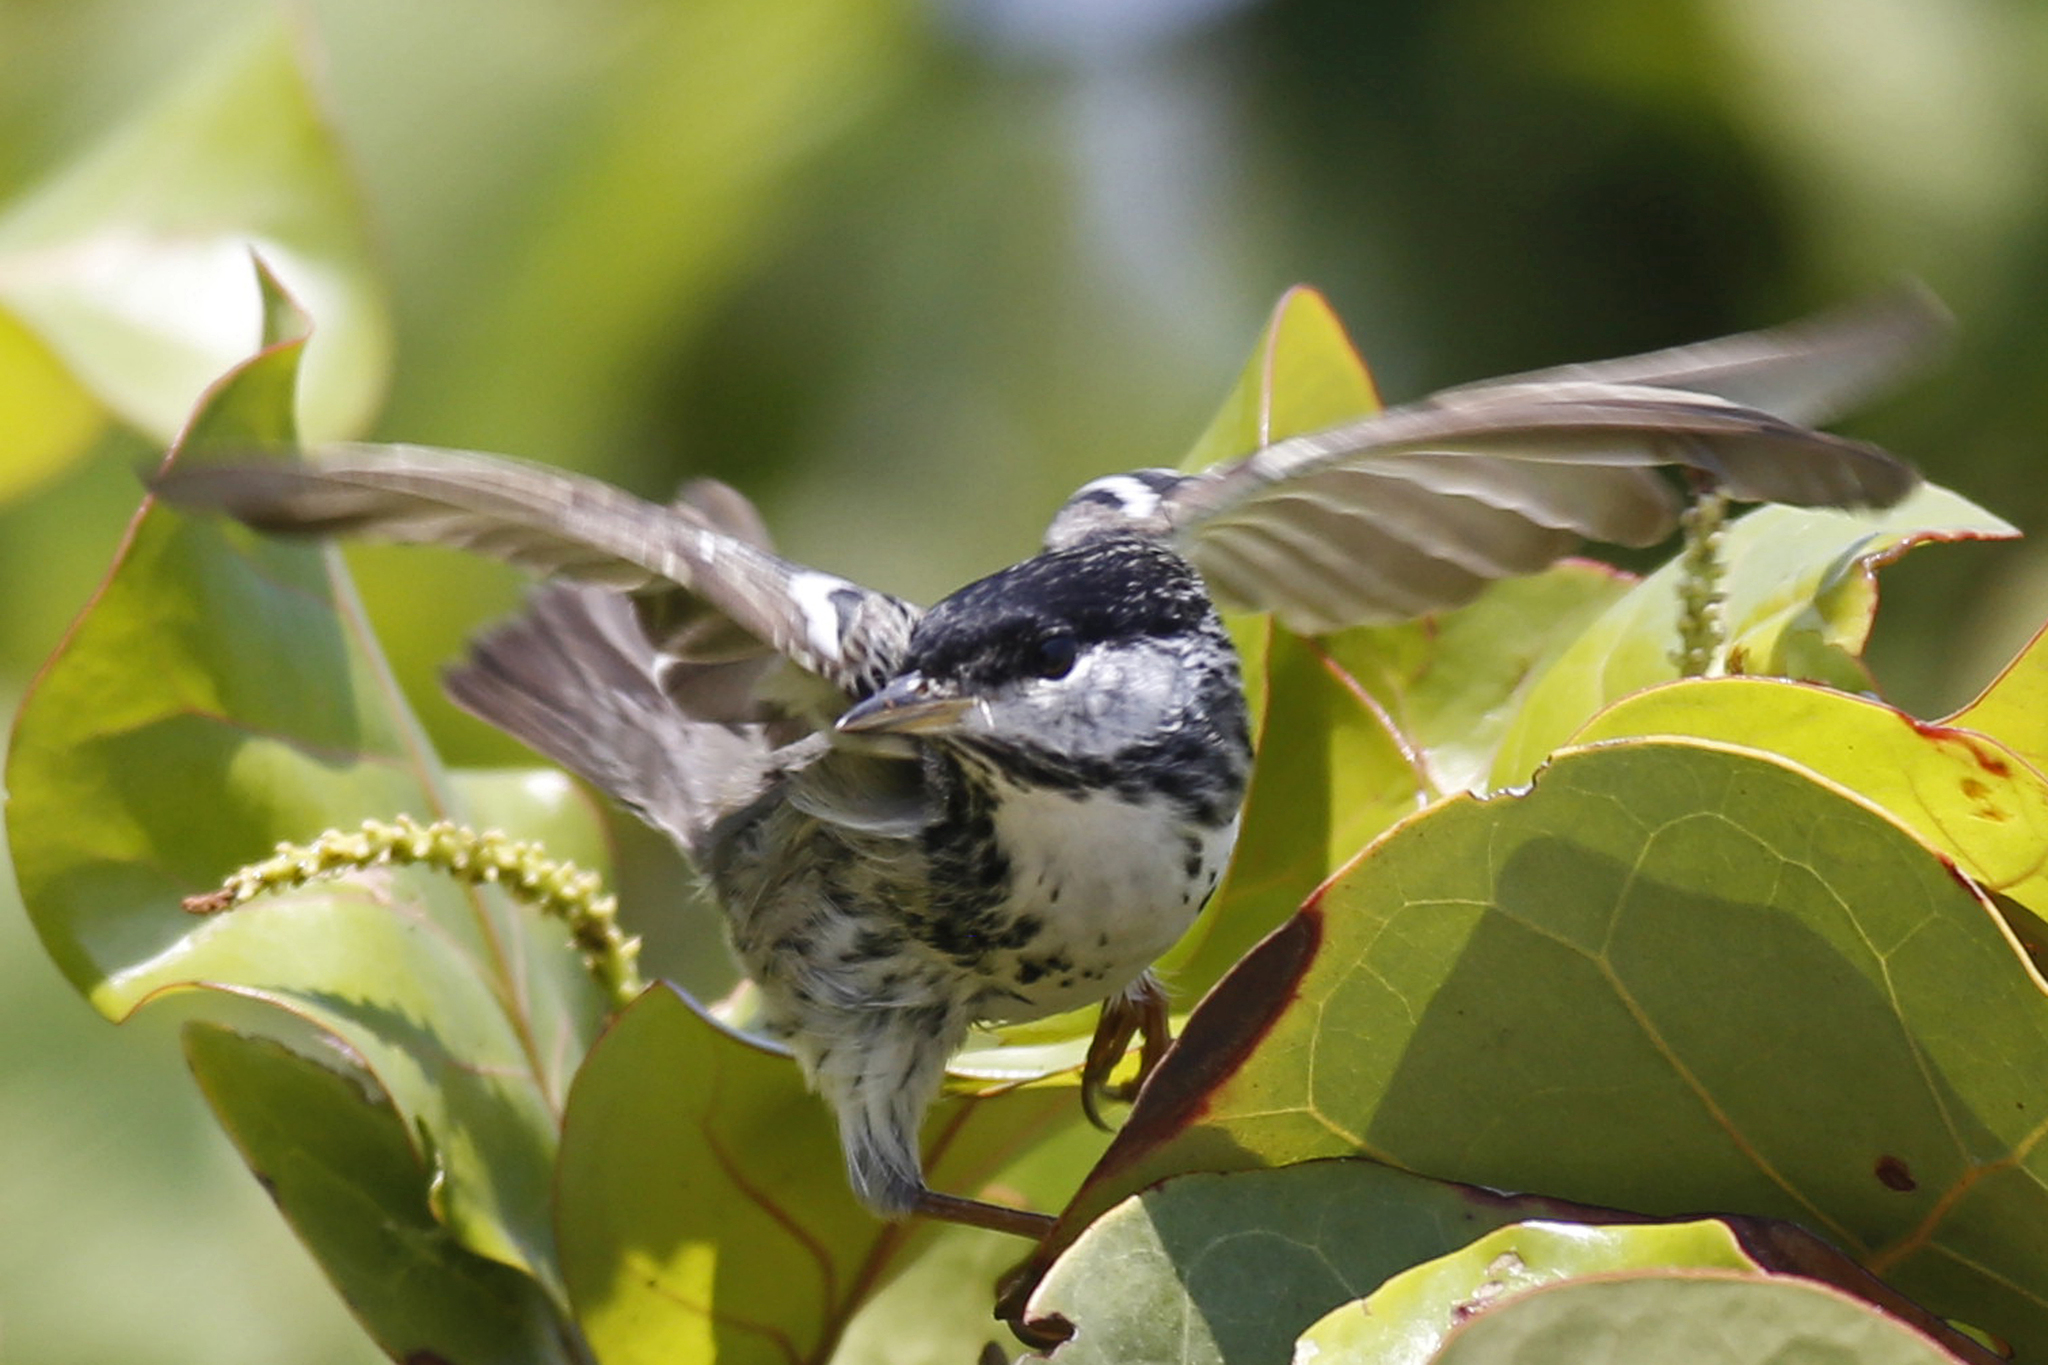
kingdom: Animalia
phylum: Chordata
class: Aves
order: Passeriformes
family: Parulidae
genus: Setophaga
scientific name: Setophaga striata
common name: Blackpoll warbler
